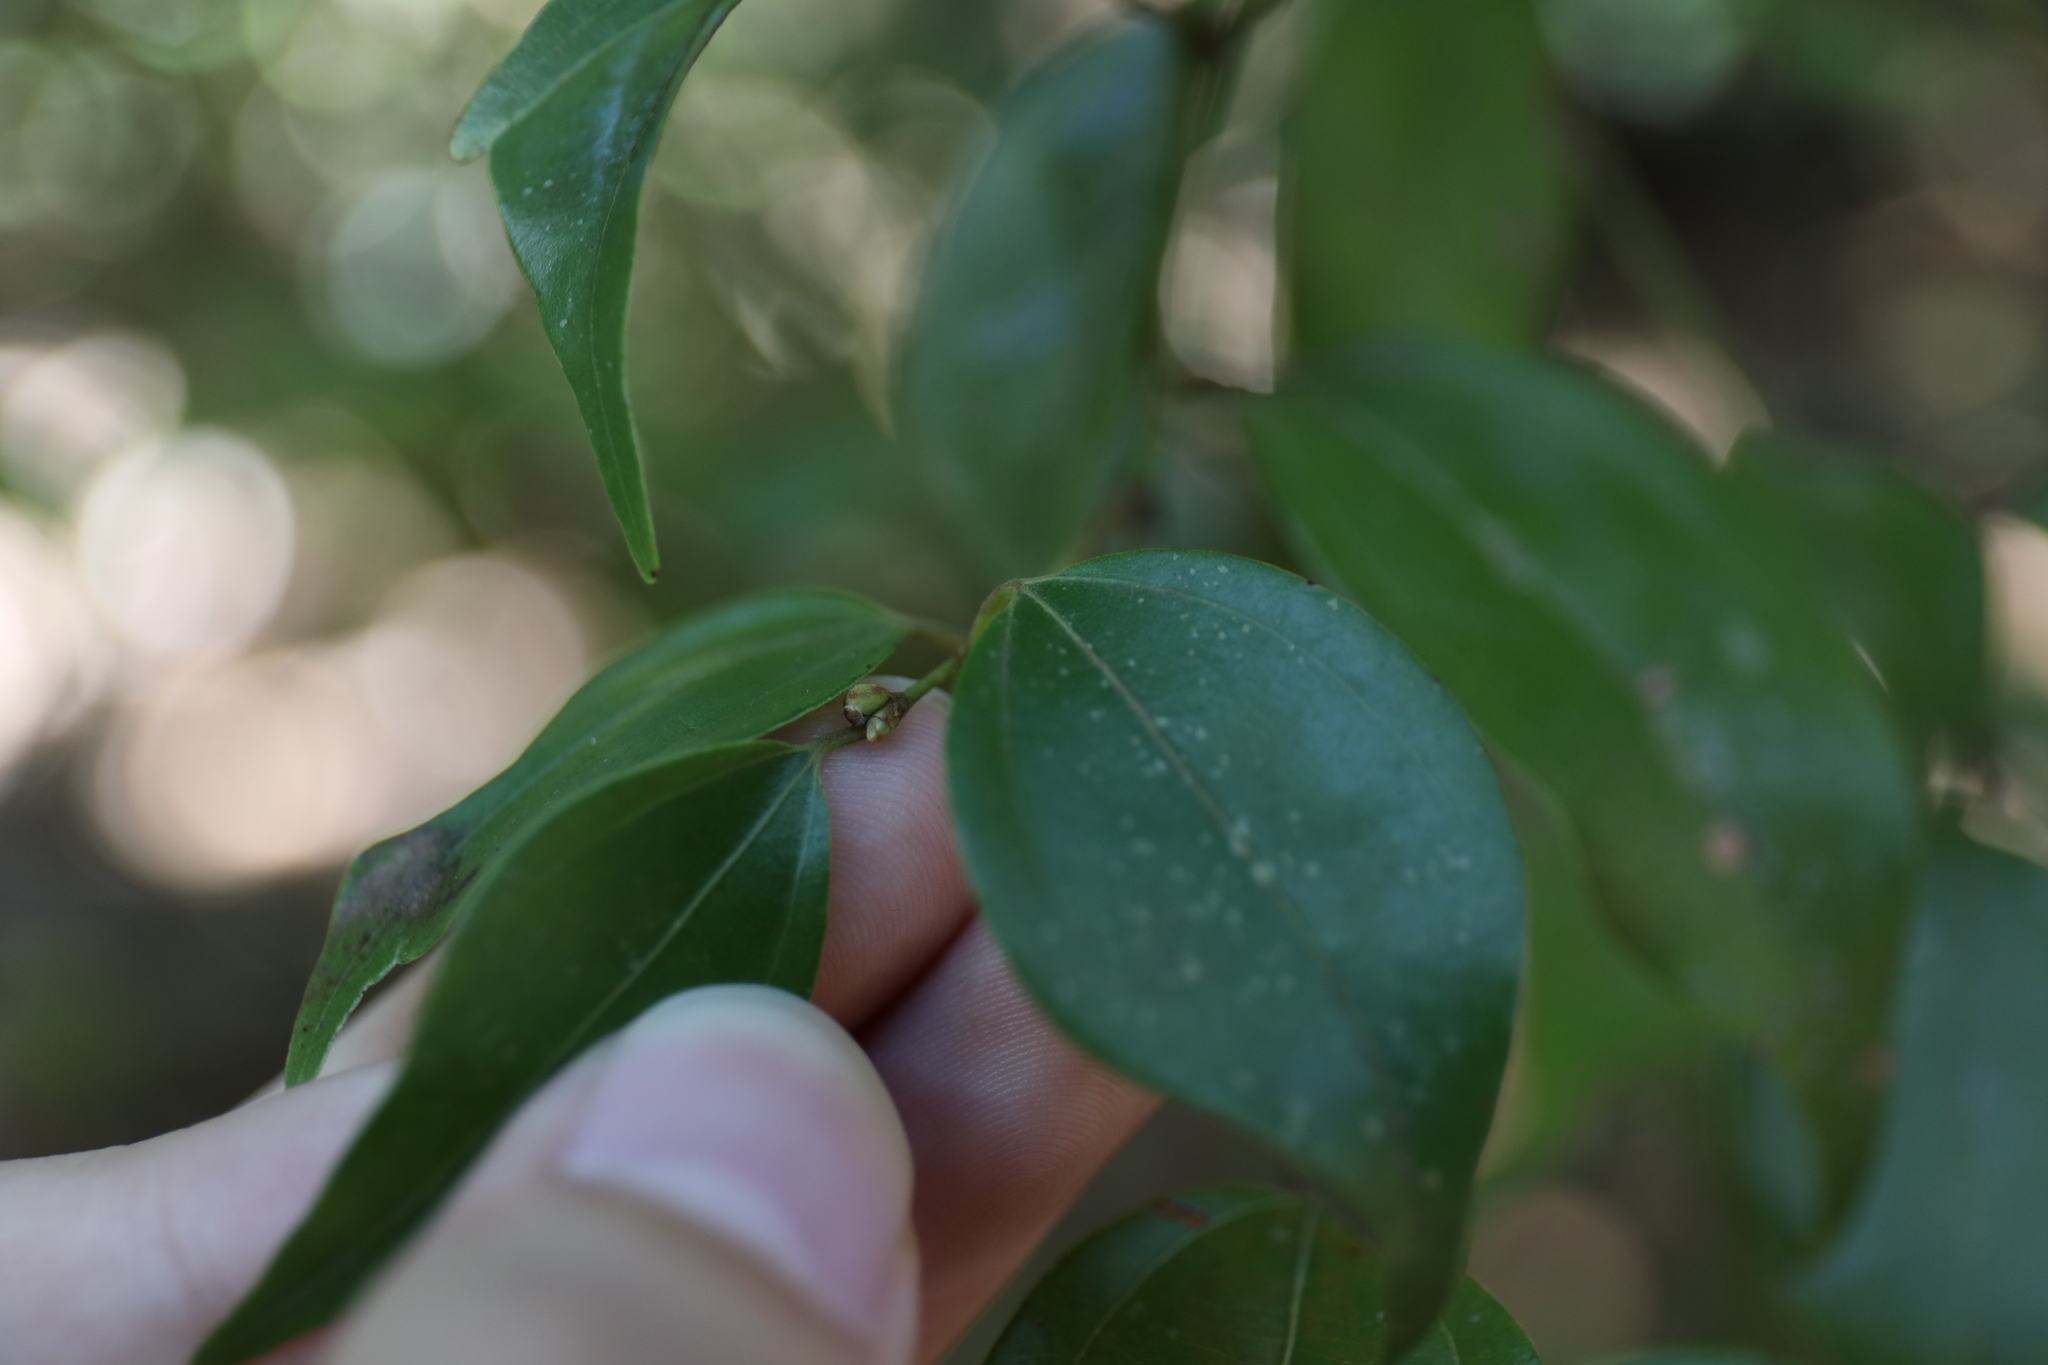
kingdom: Plantae
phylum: Tracheophyta
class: Magnoliopsida
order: Laurales
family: Lauraceae
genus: Lindera
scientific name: Lindera aggregata
